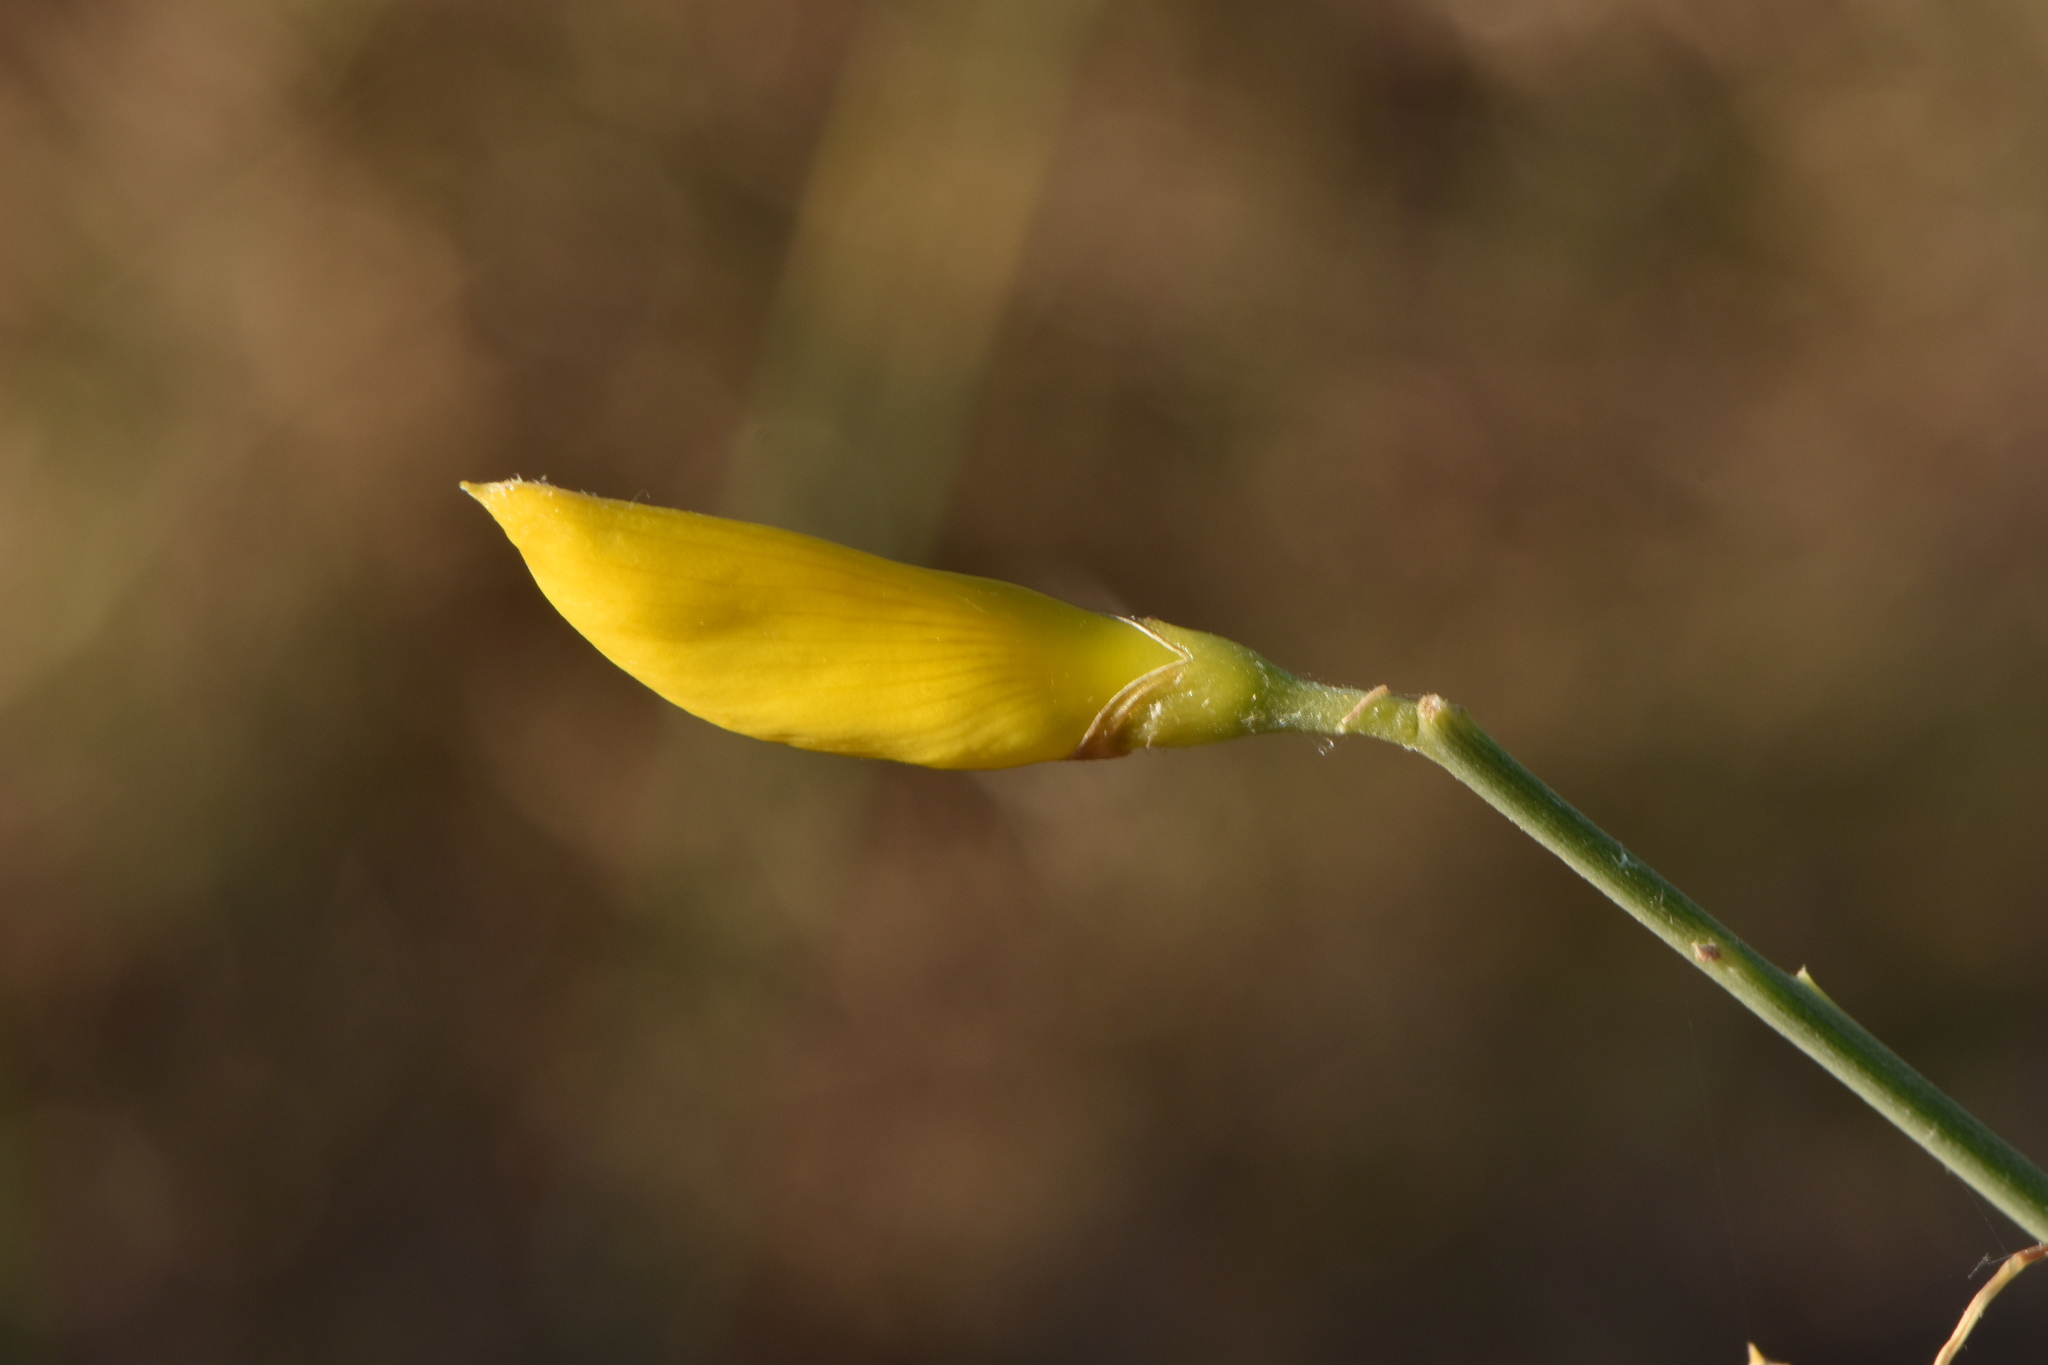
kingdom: Plantae
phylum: Tracheophyta
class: Magnoliopsida
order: Fabales
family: Fabaceae
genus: Spartium
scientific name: Spartium junceum
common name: Spanish broom
